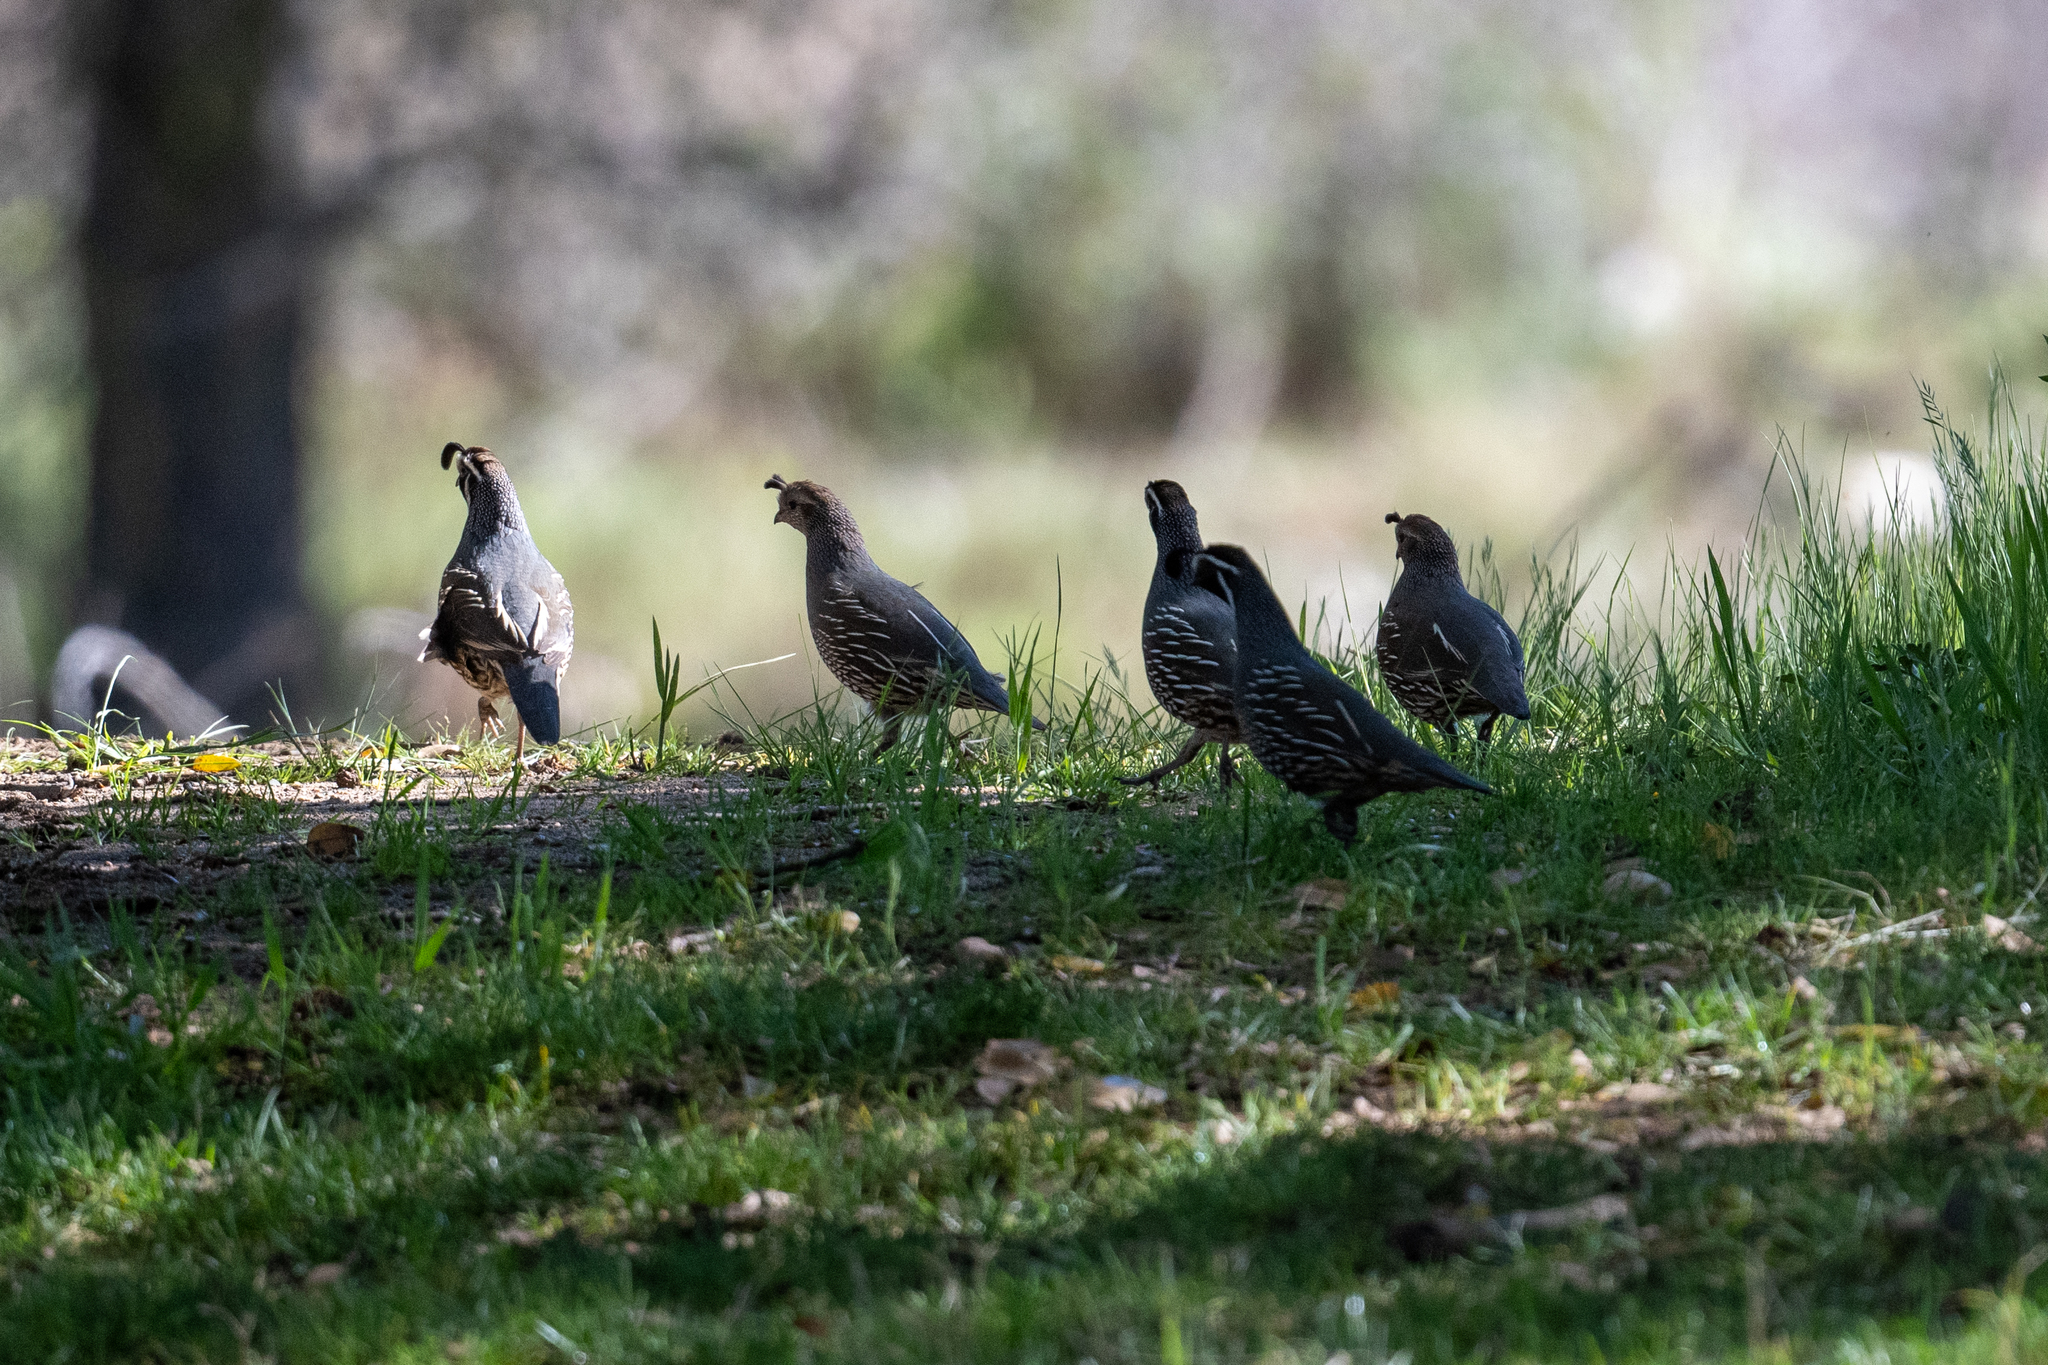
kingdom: Animalia
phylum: Chordata
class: Aves
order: Galliformes
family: Odontophoridae
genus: Callipepla
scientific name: Callipepla californica
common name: California quail
